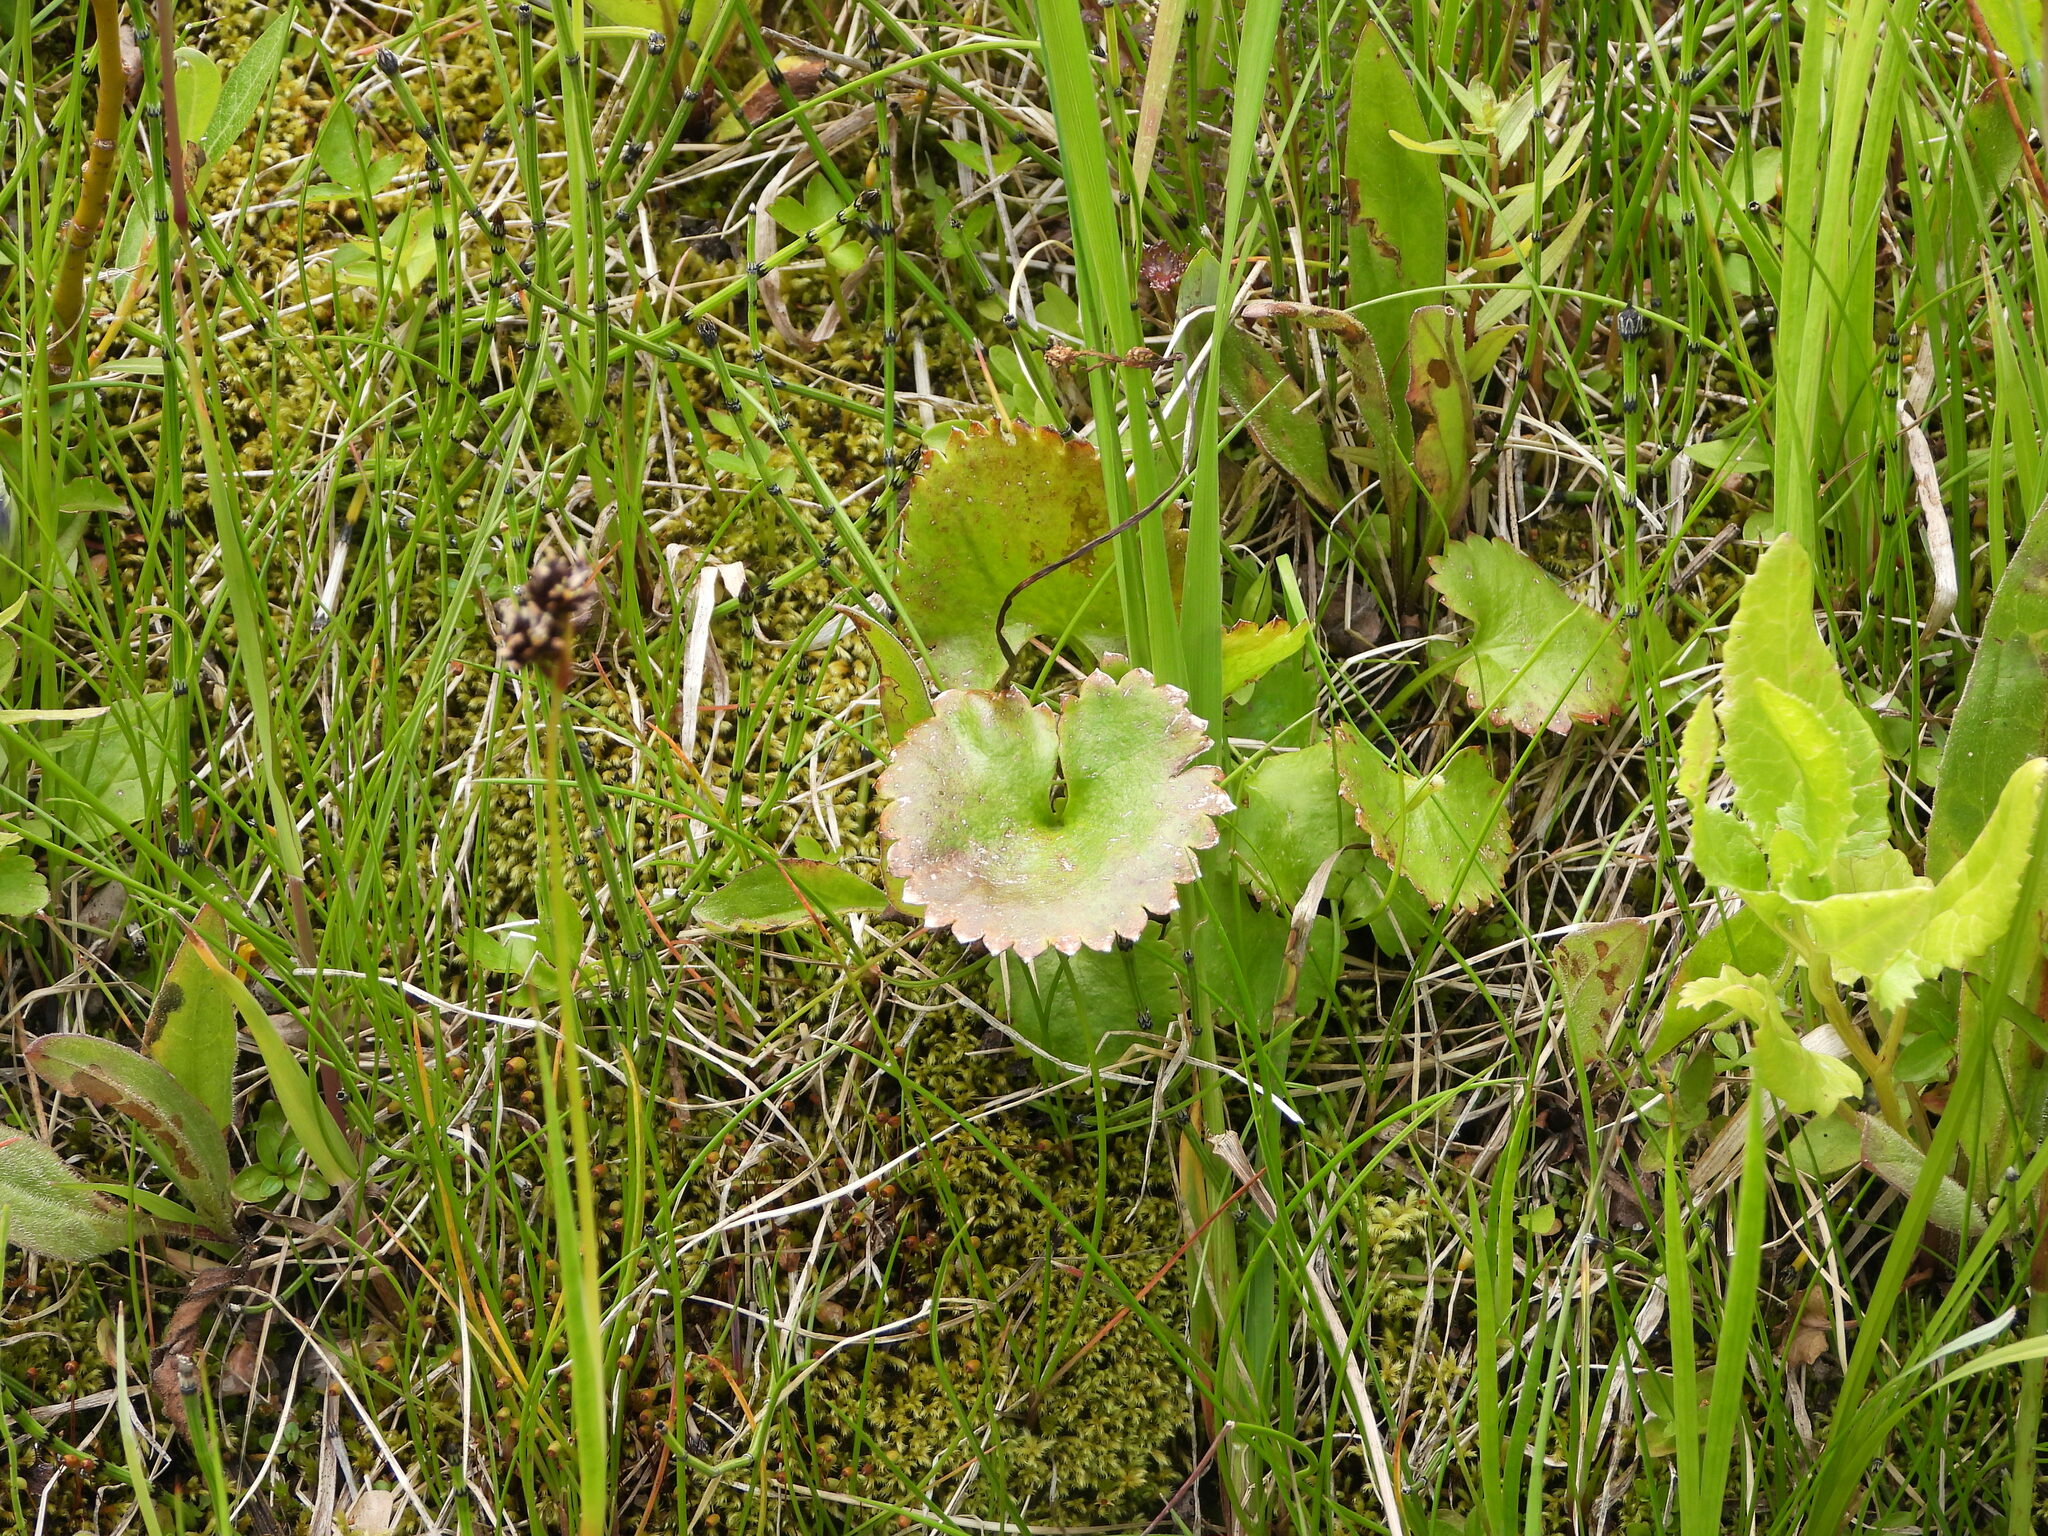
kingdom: Plantae
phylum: Tracheophyta
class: Magnoliopsida
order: Saxifragales
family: Saxifragaceae
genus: Micranthes
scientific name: Micranthes odontoloma
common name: Brook saxifrage
